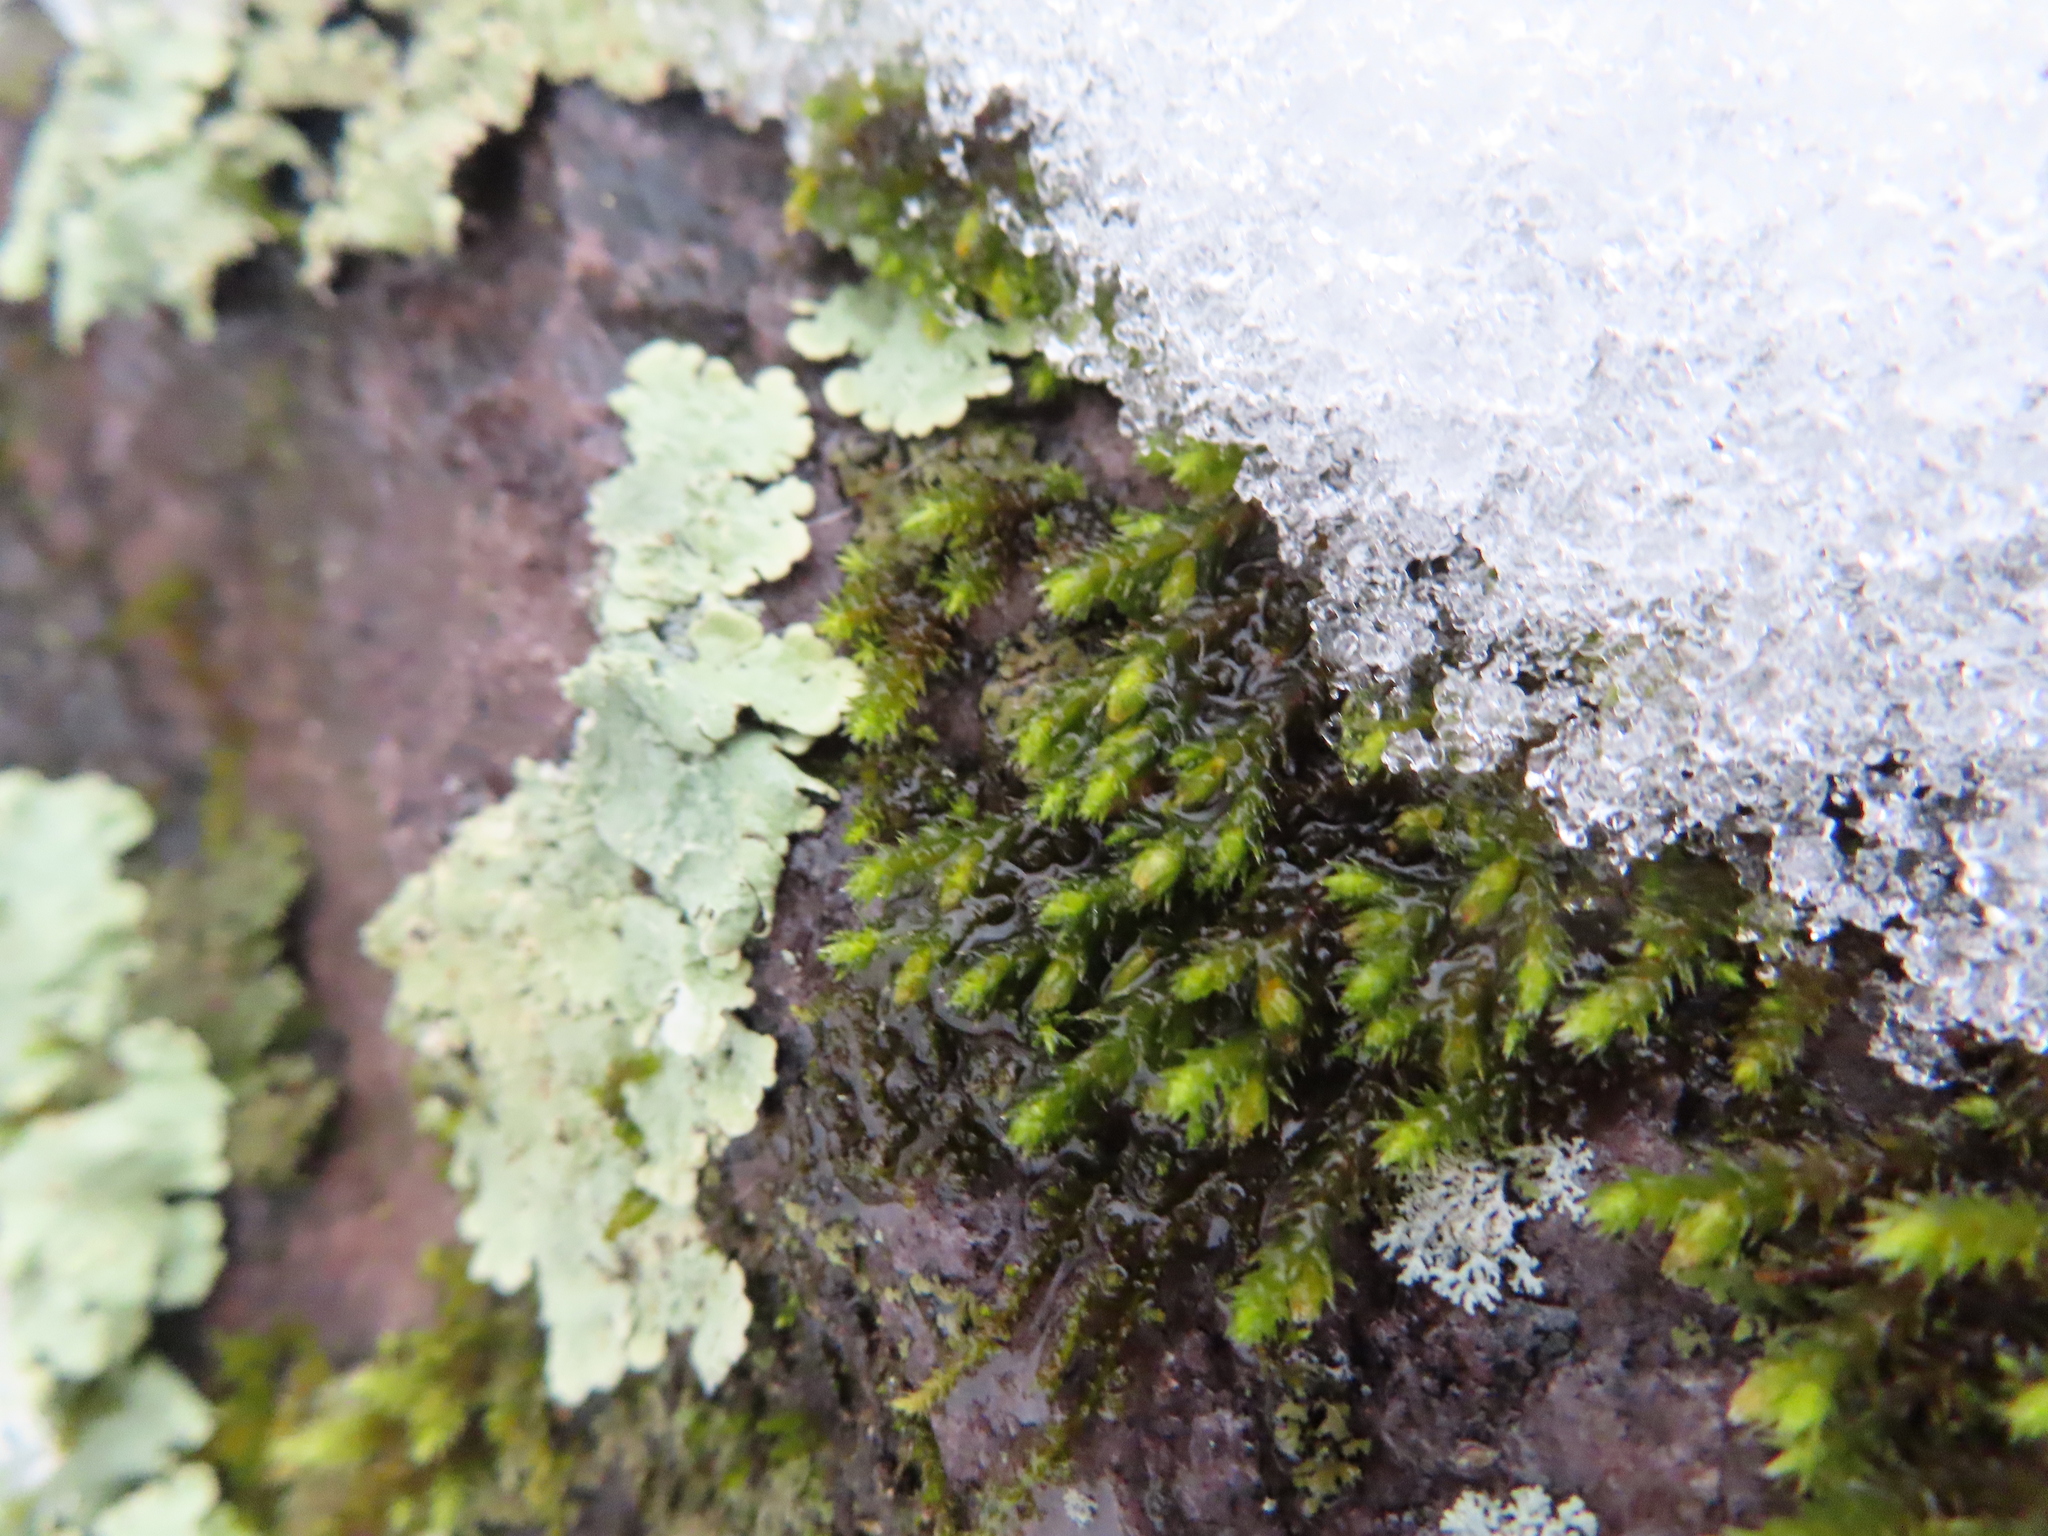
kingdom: Plantae
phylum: Bryophyta
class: Bryopsida
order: Hedwigiales
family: Hedwigiaceae
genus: Hedwigia
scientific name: Hedwigia ciliata
